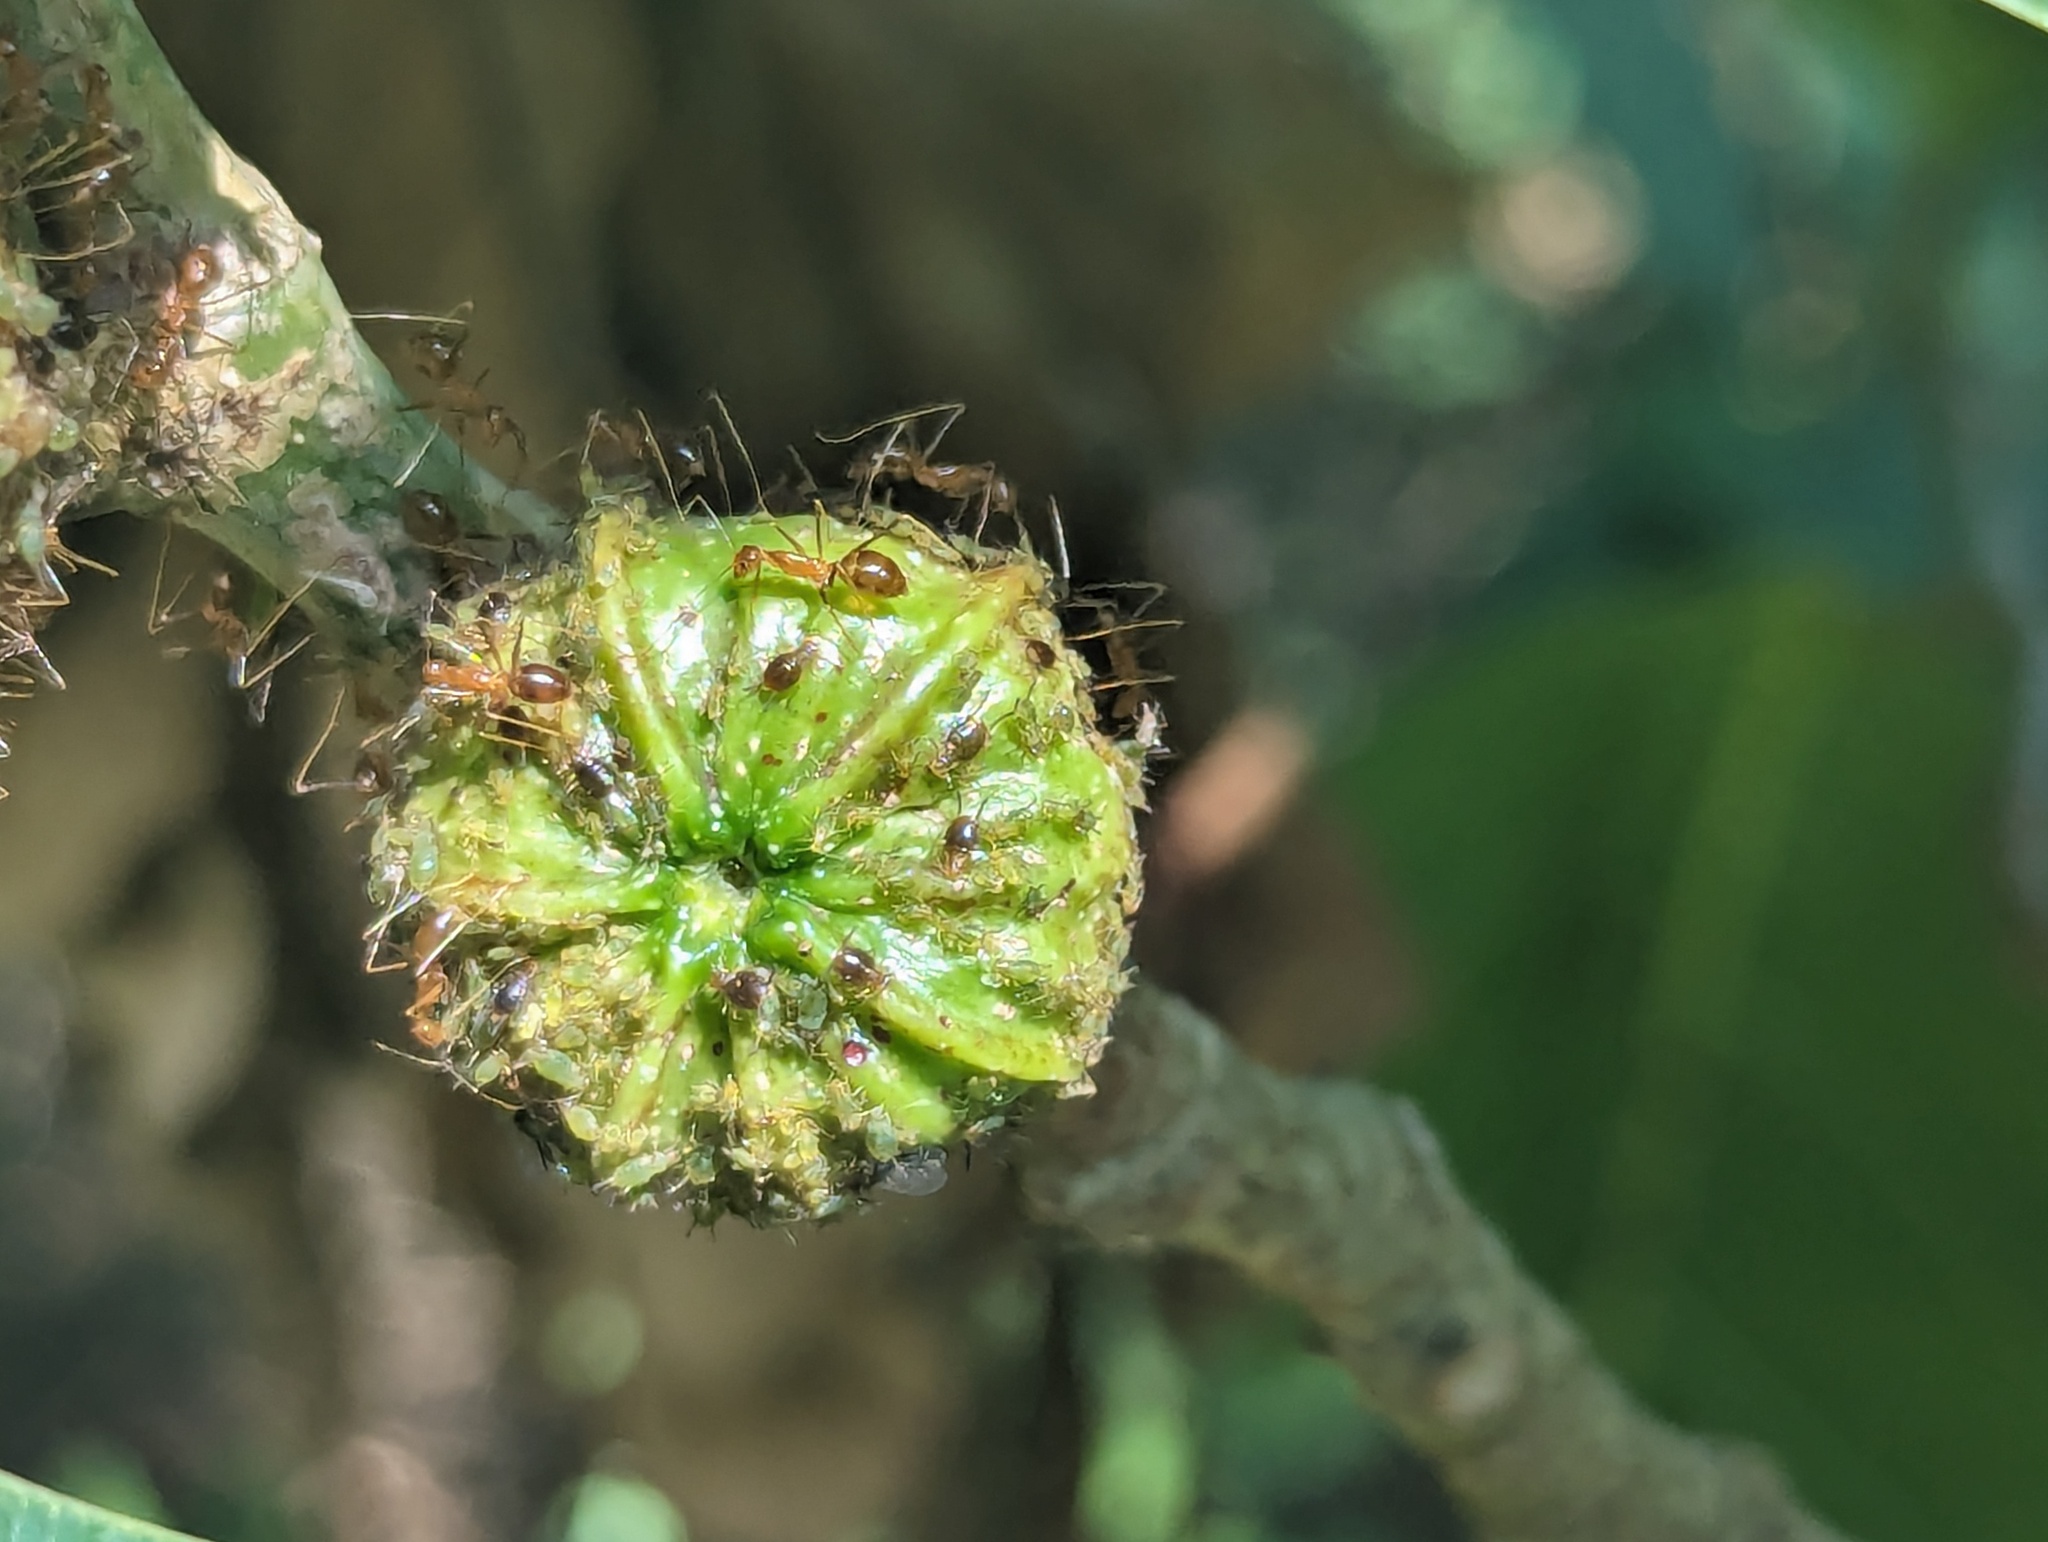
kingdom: Animalia
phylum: Arthropoda
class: Insecta
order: Hymenoptera
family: Formicidae
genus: Anoplolepis
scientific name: Anoplolepis gracilipes
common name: Ant
